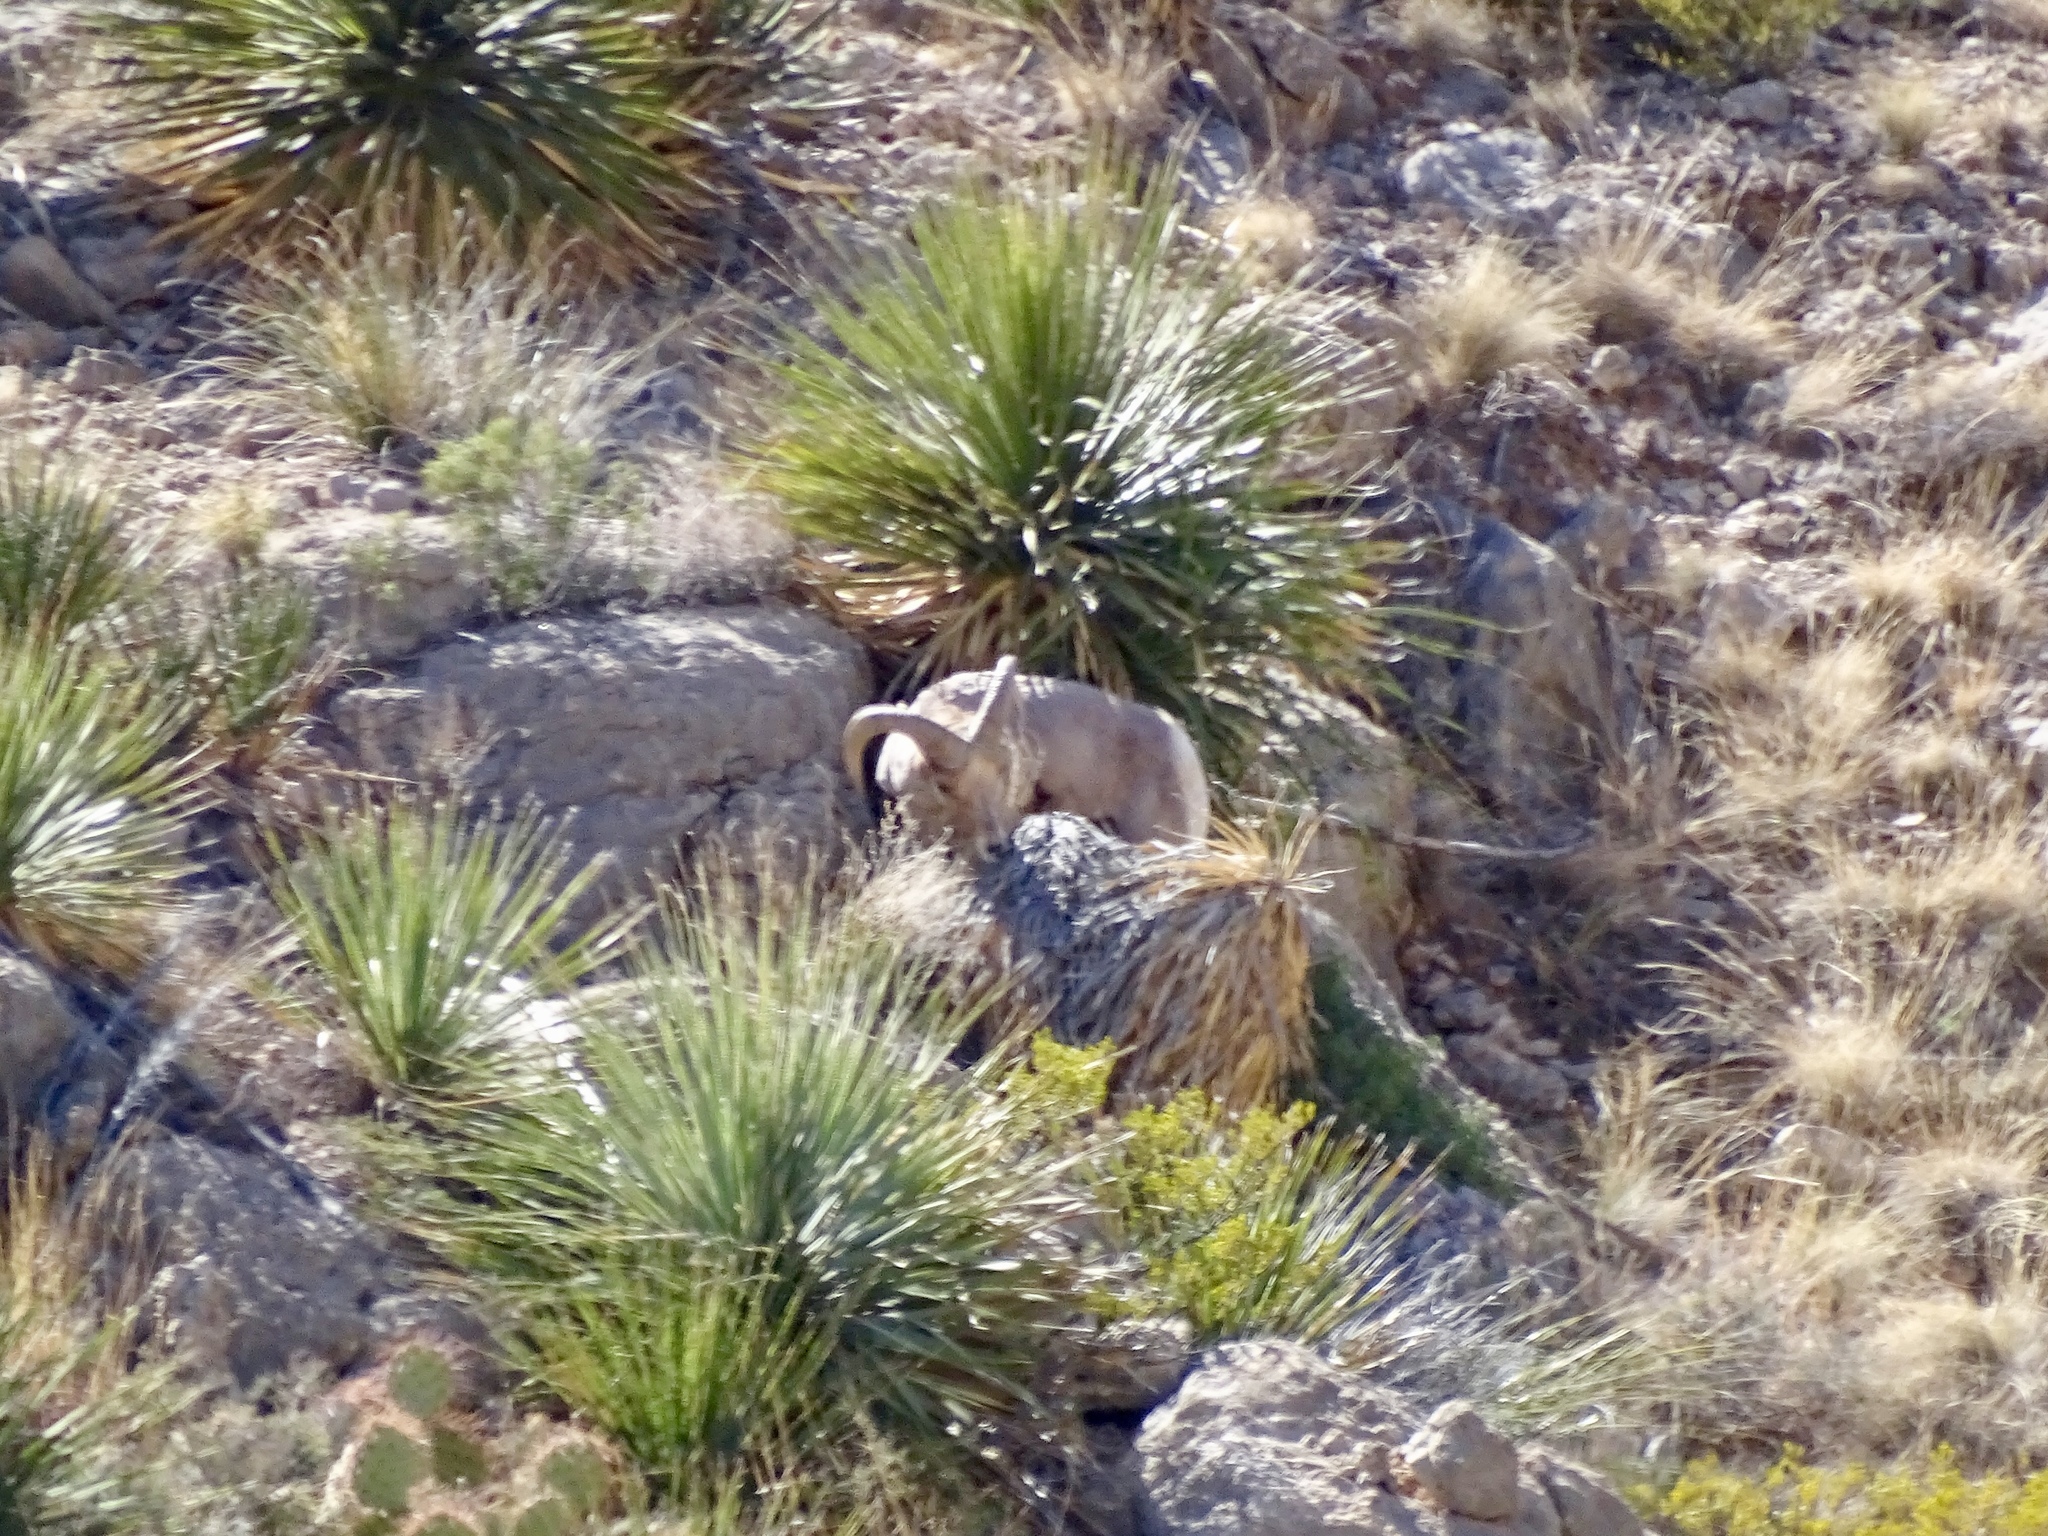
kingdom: Animalia
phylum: Chordata
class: Mammalia
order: Artiodactyla
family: Bovidae
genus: Ovis
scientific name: Ovis canadensis
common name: Bighorn sheep
